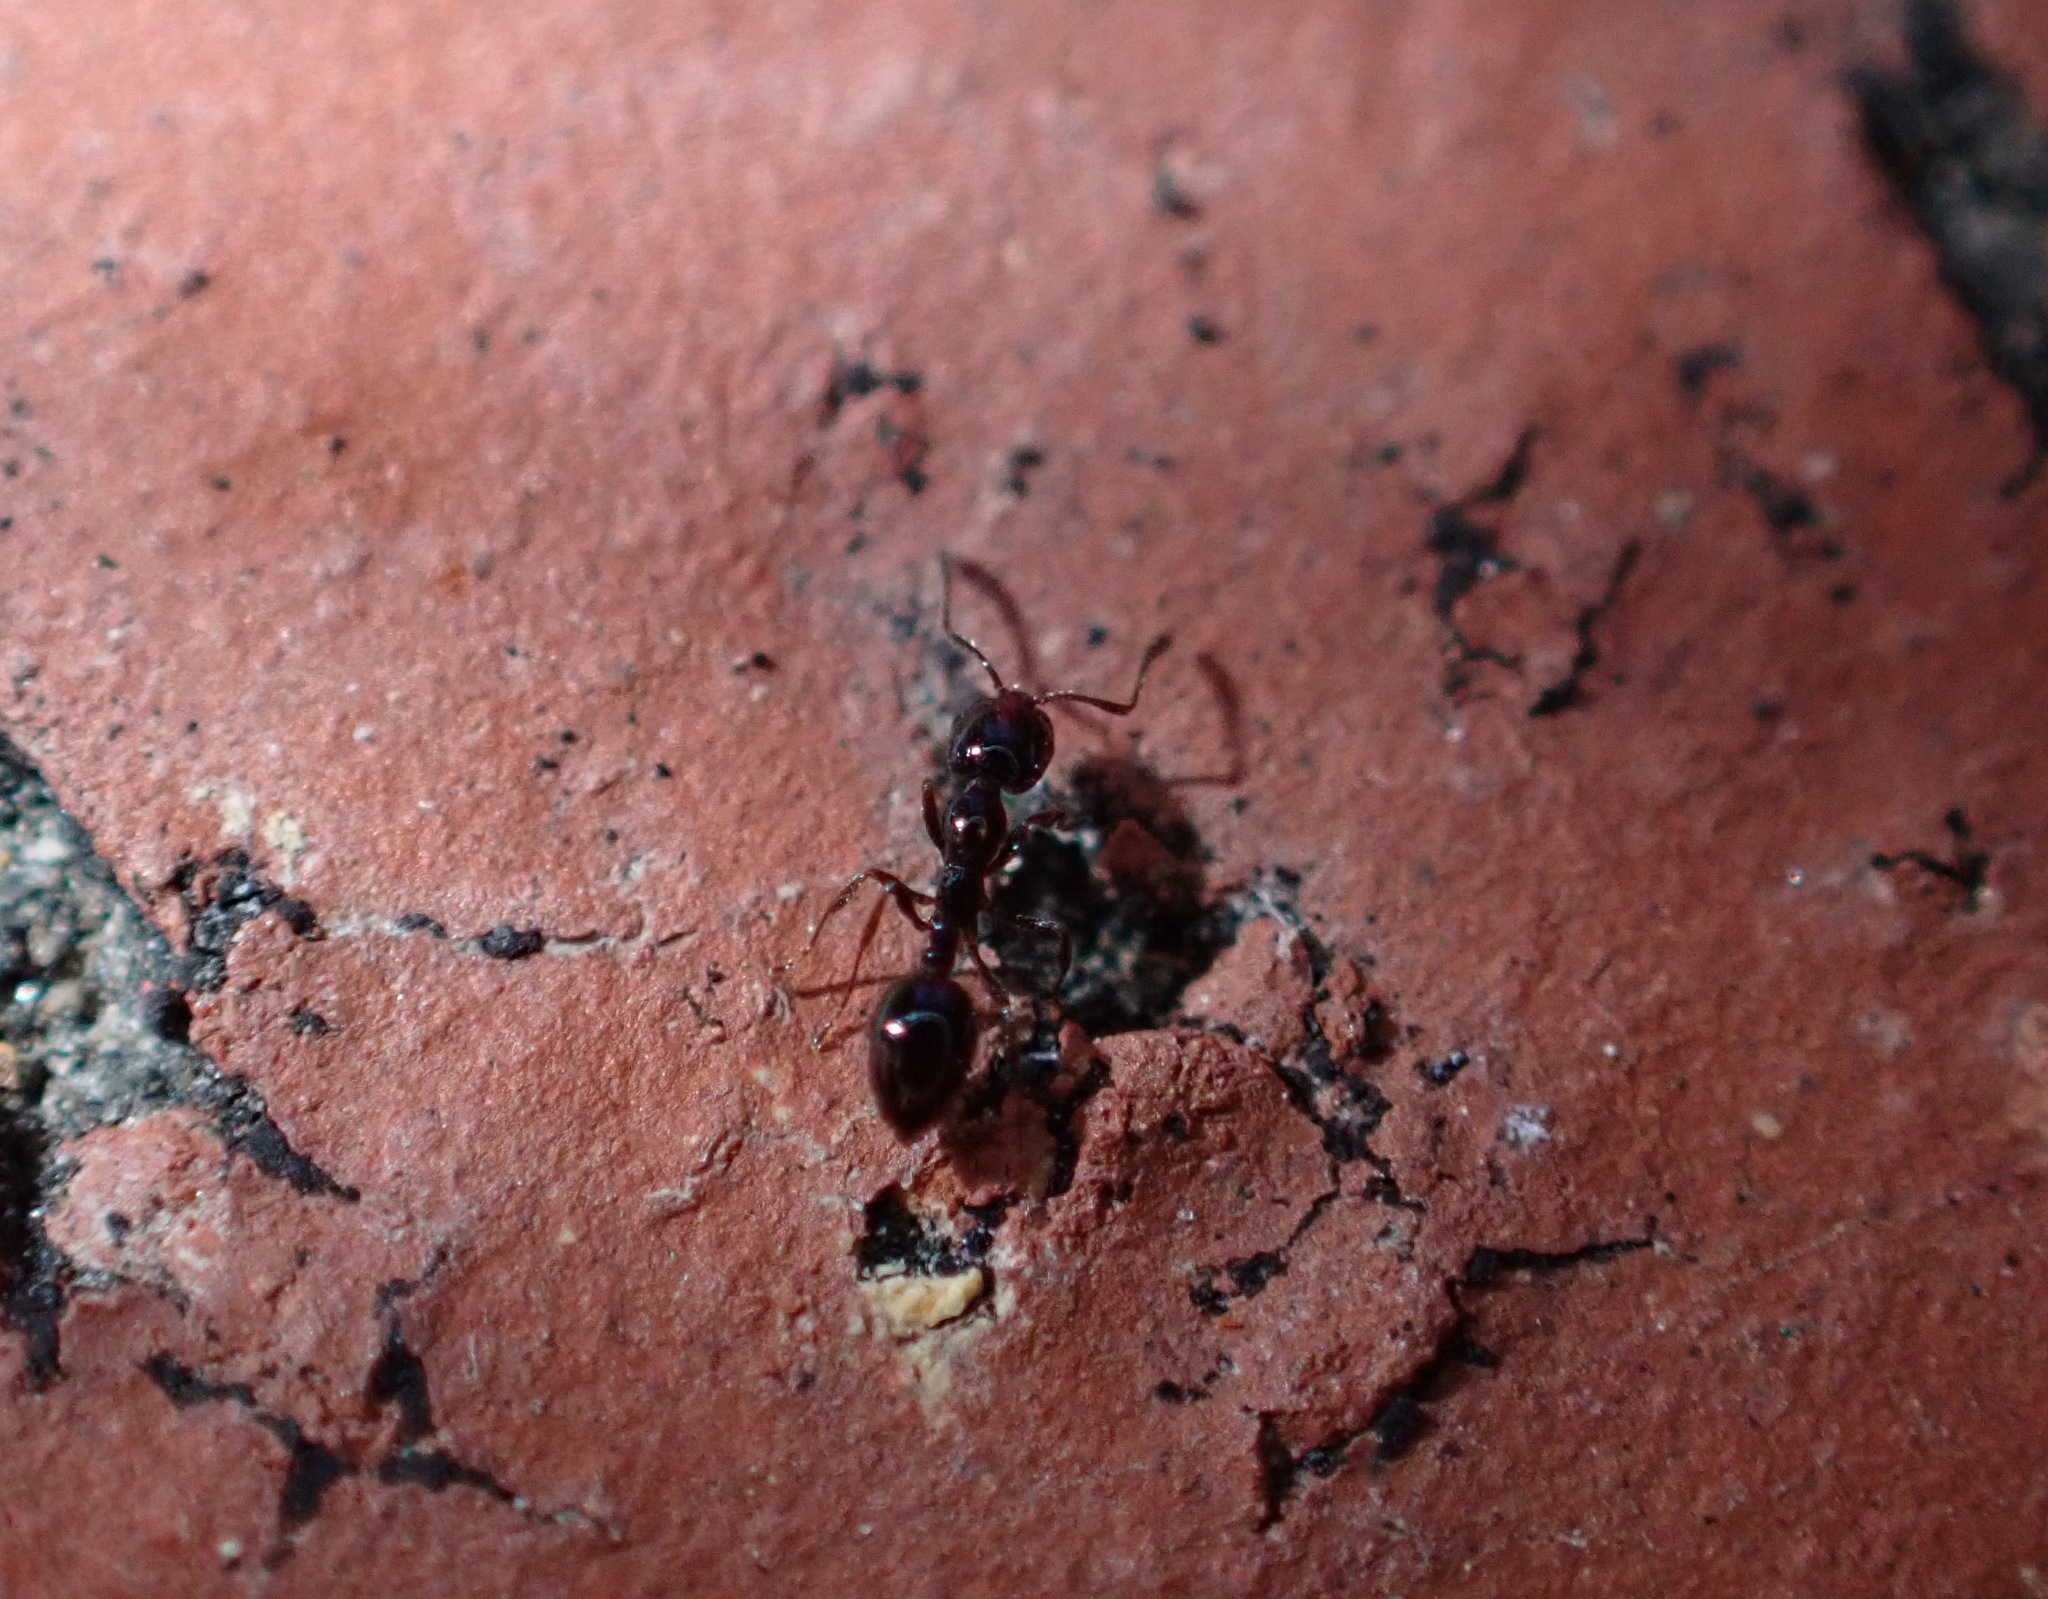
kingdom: Animalia
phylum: Arthropoda
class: Insecta
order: Hymenoptera
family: Formicidae
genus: Monomorium
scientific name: Monomorium ergatogyna
